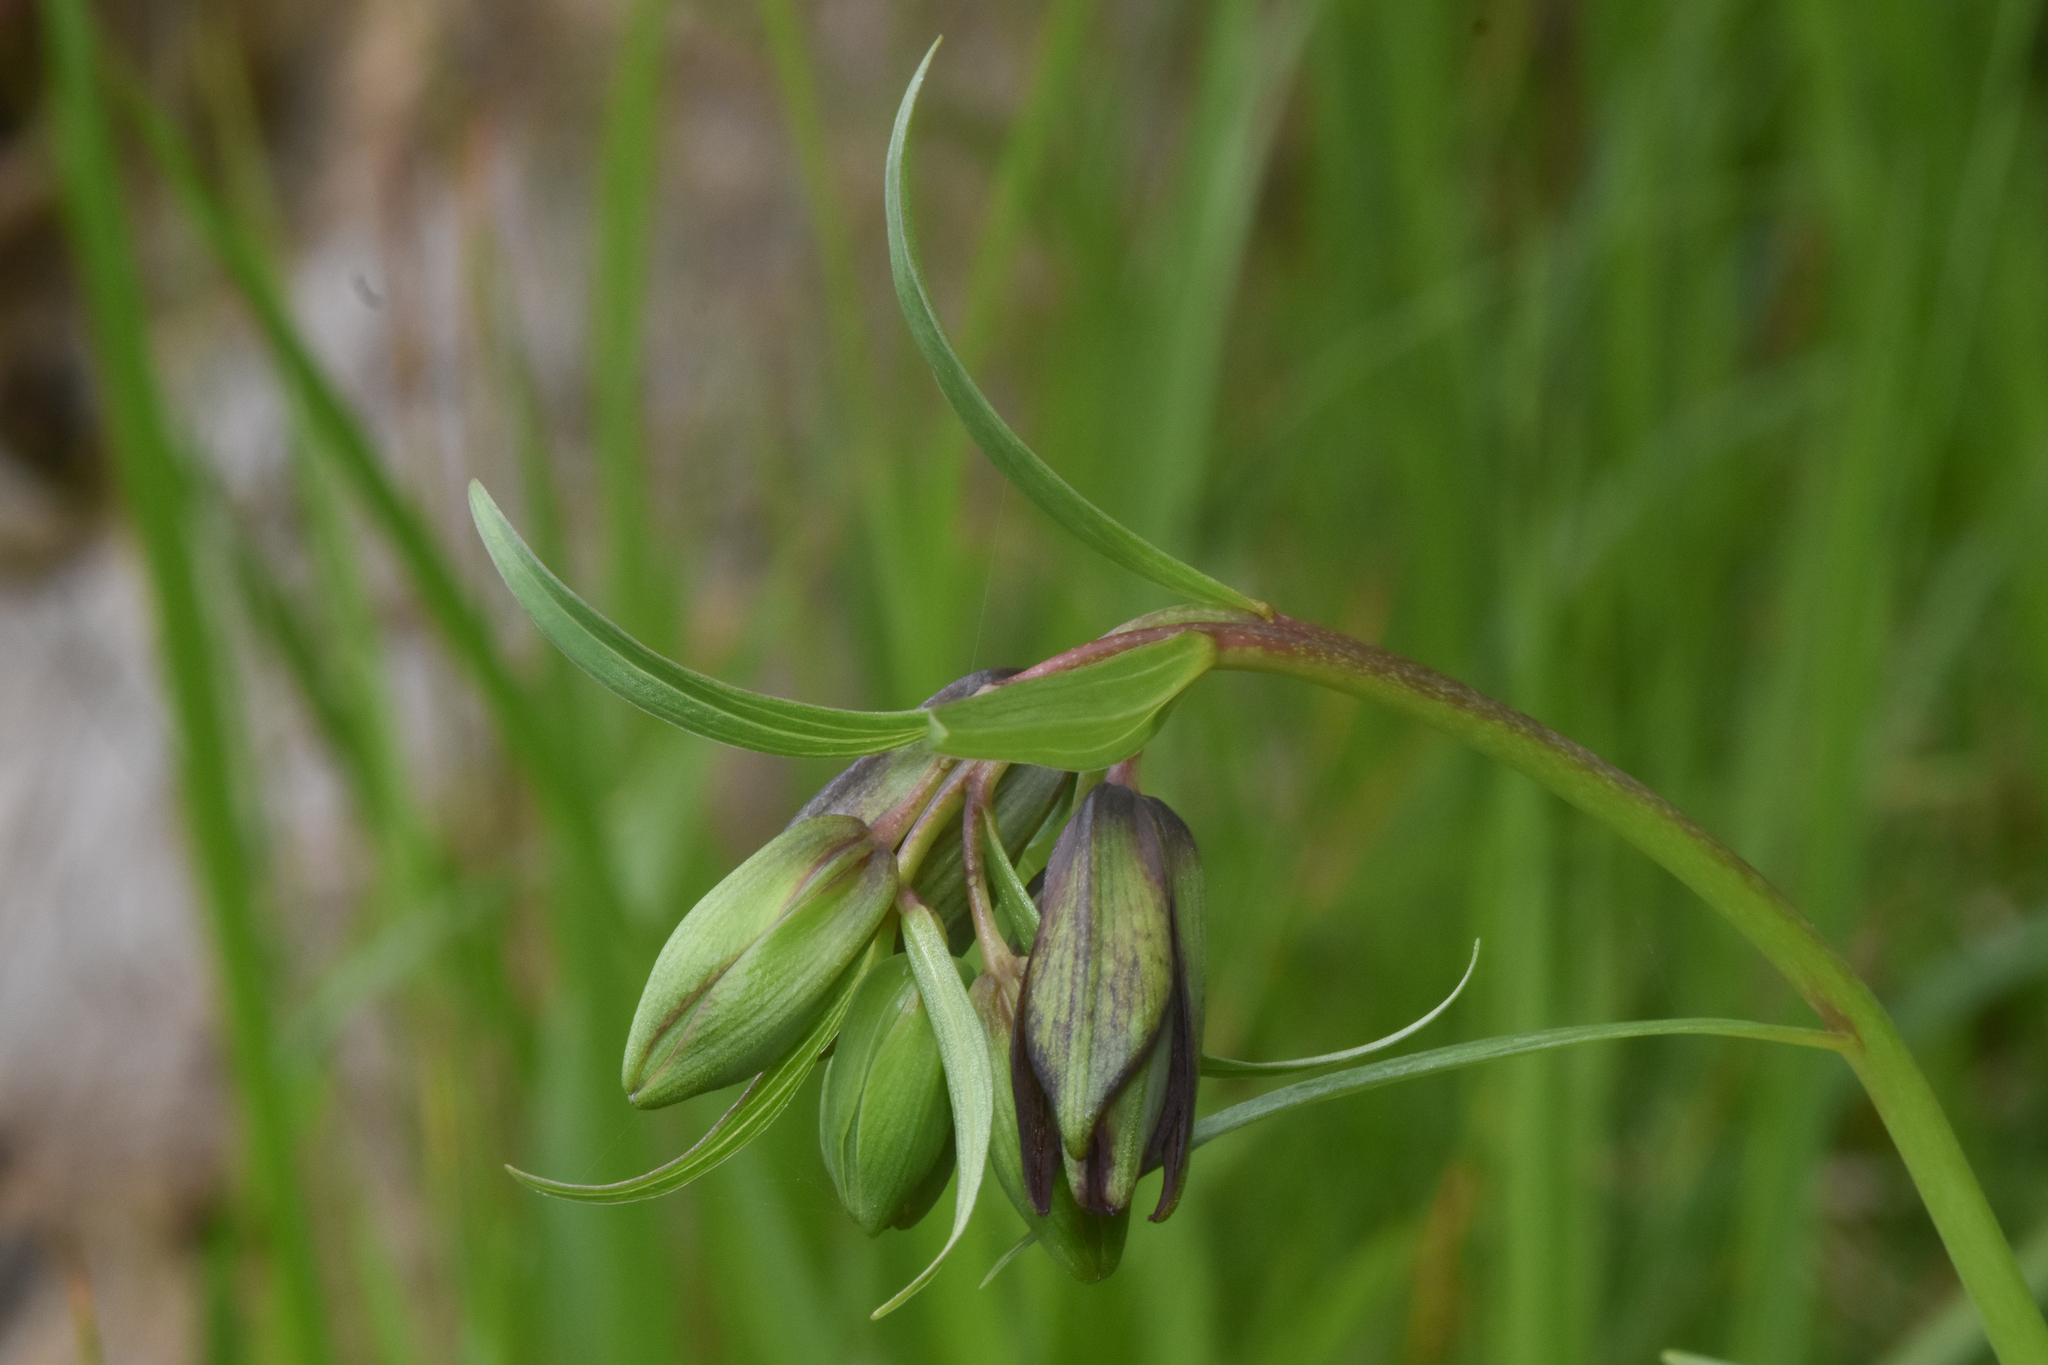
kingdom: Plantae
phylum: Tracheophyta
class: Liliopsida
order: Liliales
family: Liliaceae
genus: Fritillaria
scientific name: Fritillaria camschatcensis
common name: Kamchatka fritillary
